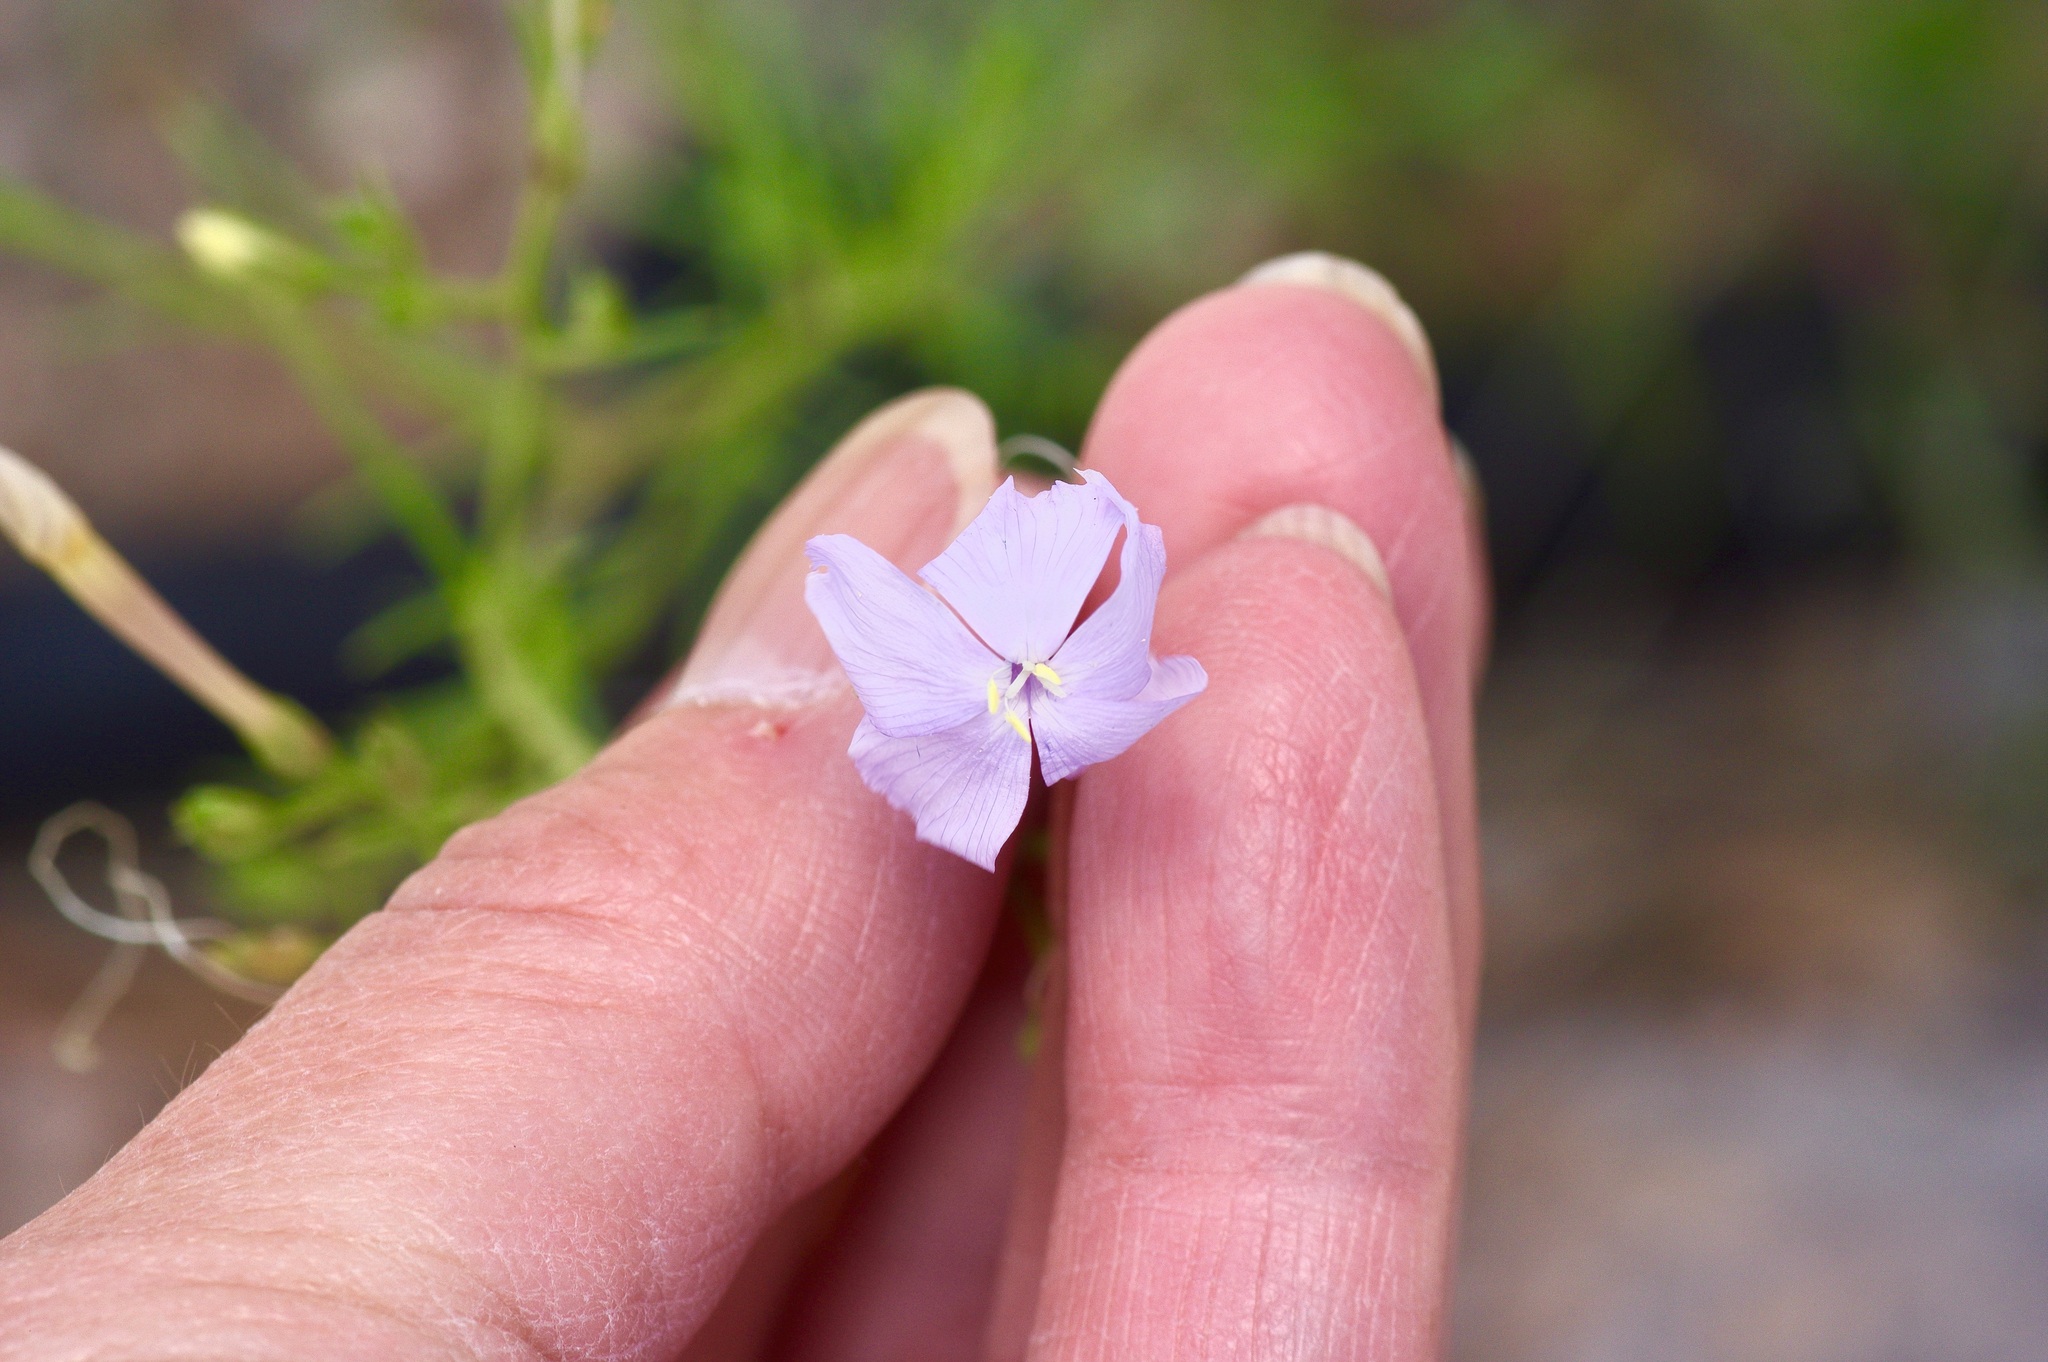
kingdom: Plantae
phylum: Tracheophyta
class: Magnoliopsida
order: Ericales
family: Polemoniaceae
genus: Ipomopsis
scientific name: Ipomopsis longiflora
